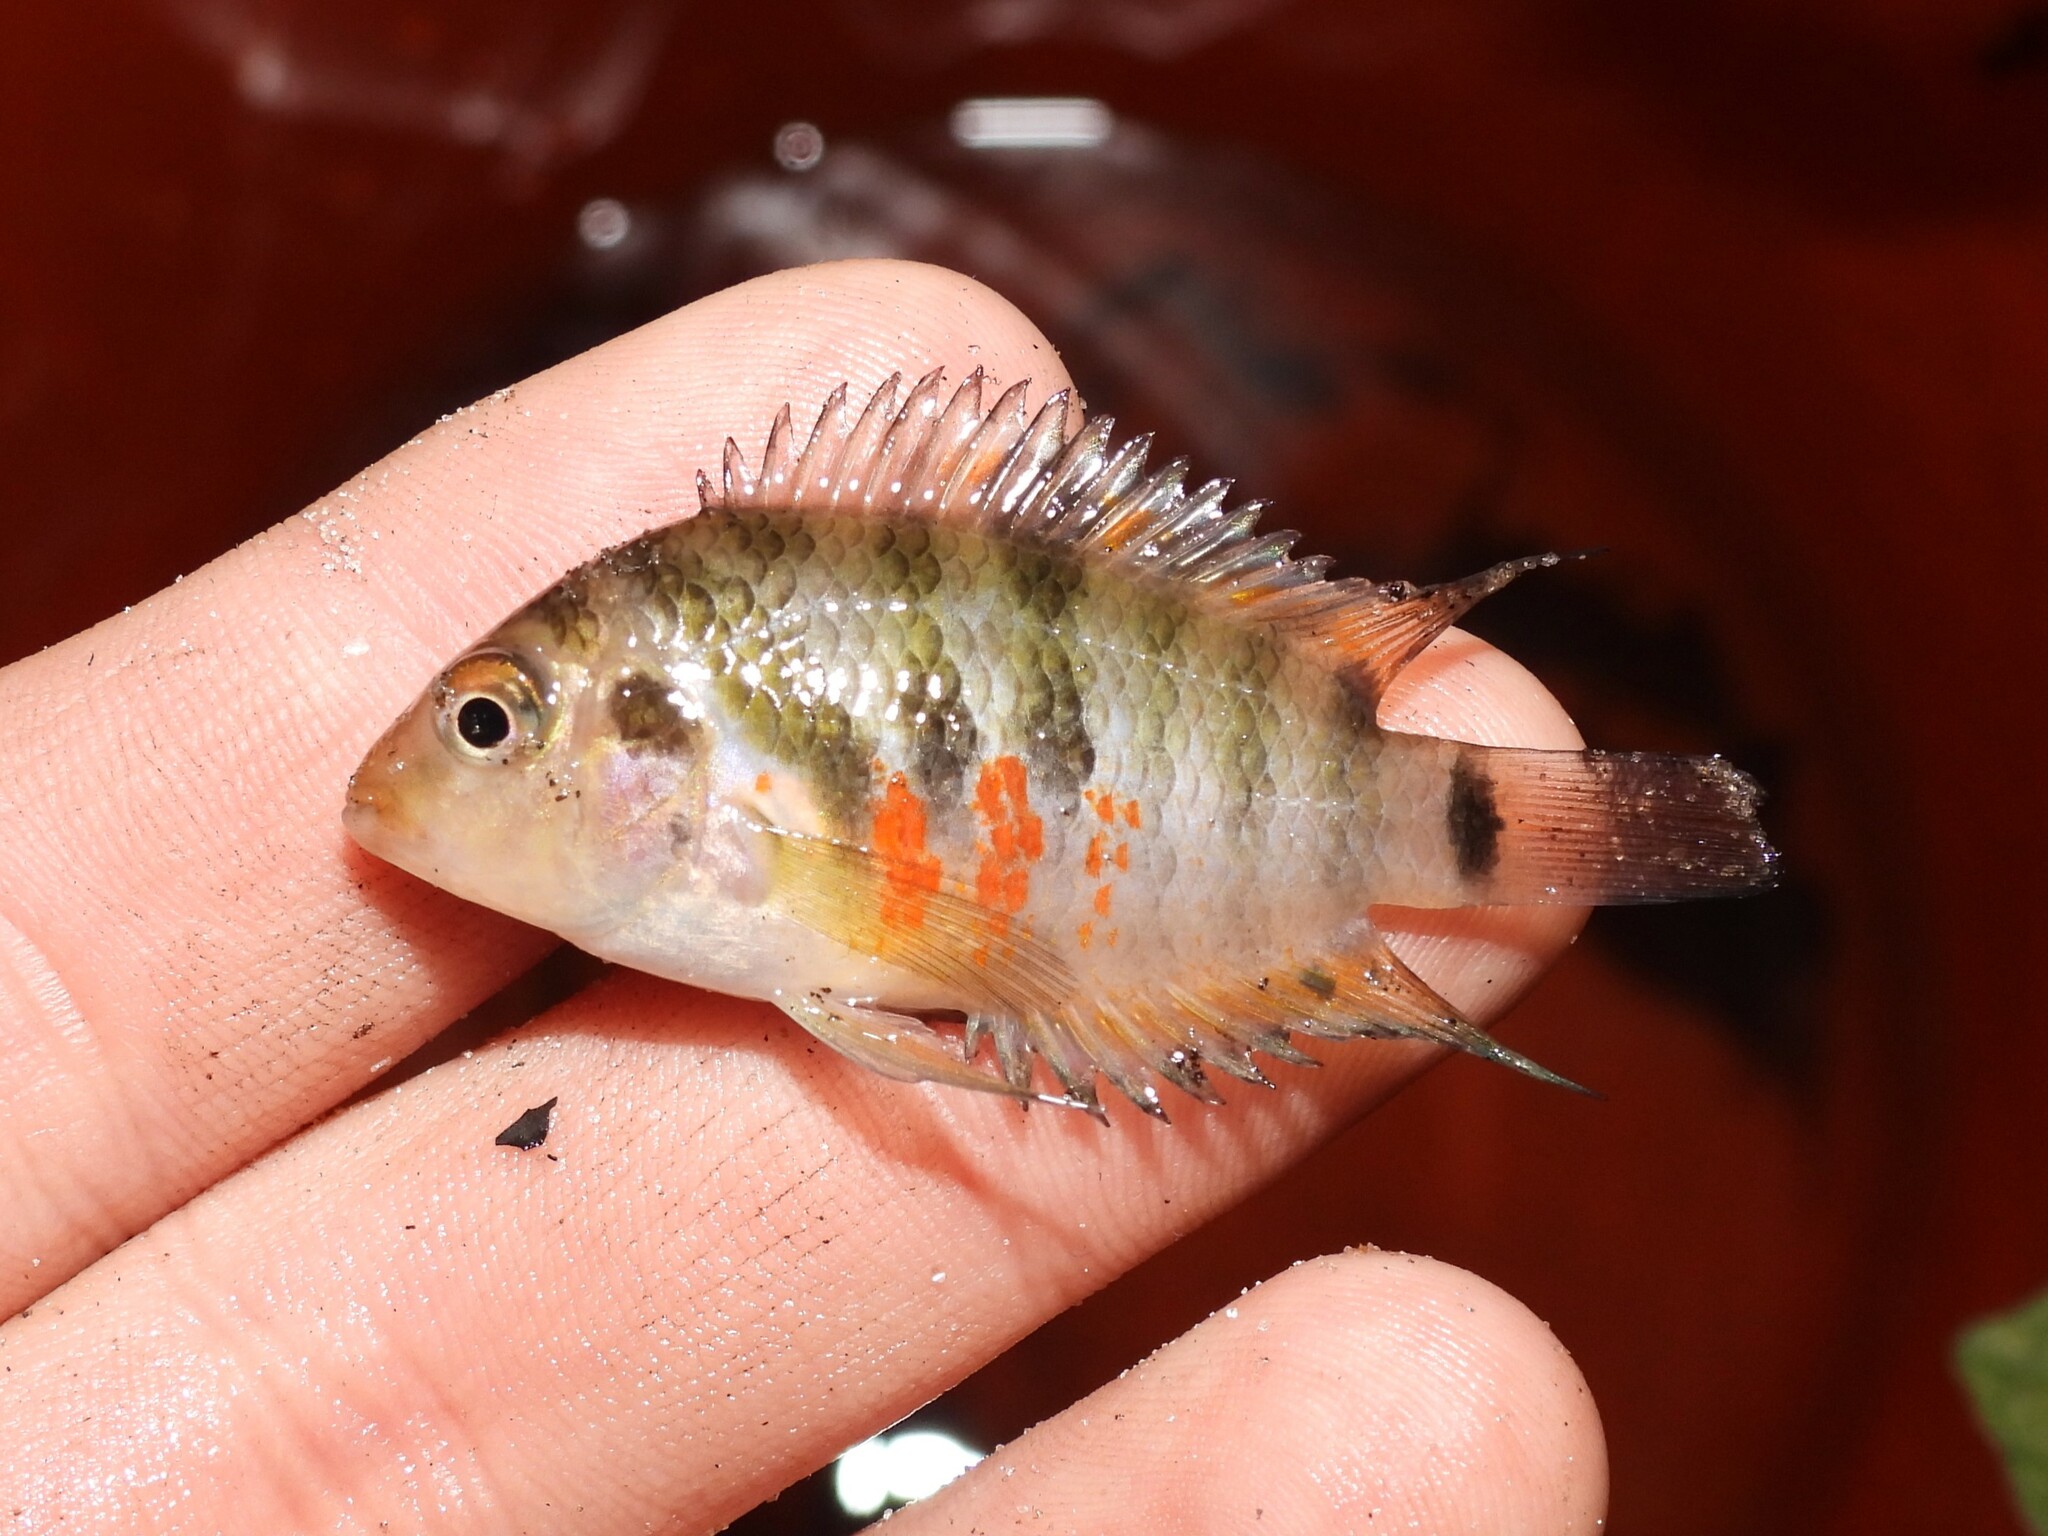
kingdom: Animalia
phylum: Chordata
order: Perciformes
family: Cichlidae
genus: Amatitlania
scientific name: Amatitlania nigrofasciata
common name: Convict cichlid
